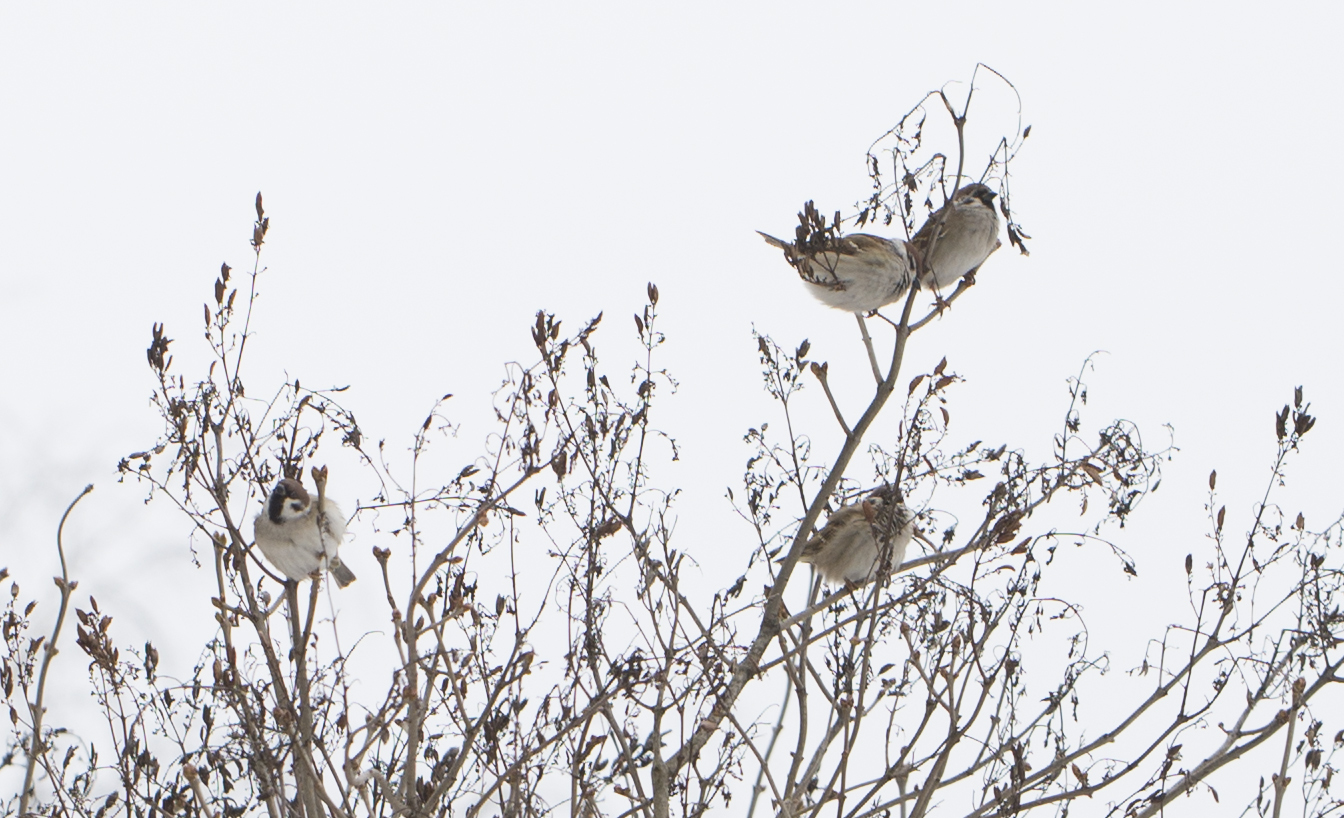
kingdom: Animalia
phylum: Chordata
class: Aves
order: Passeriformes
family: Passeridae
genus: Passer
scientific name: Passer montanus
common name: Eurasian tree sparrow
